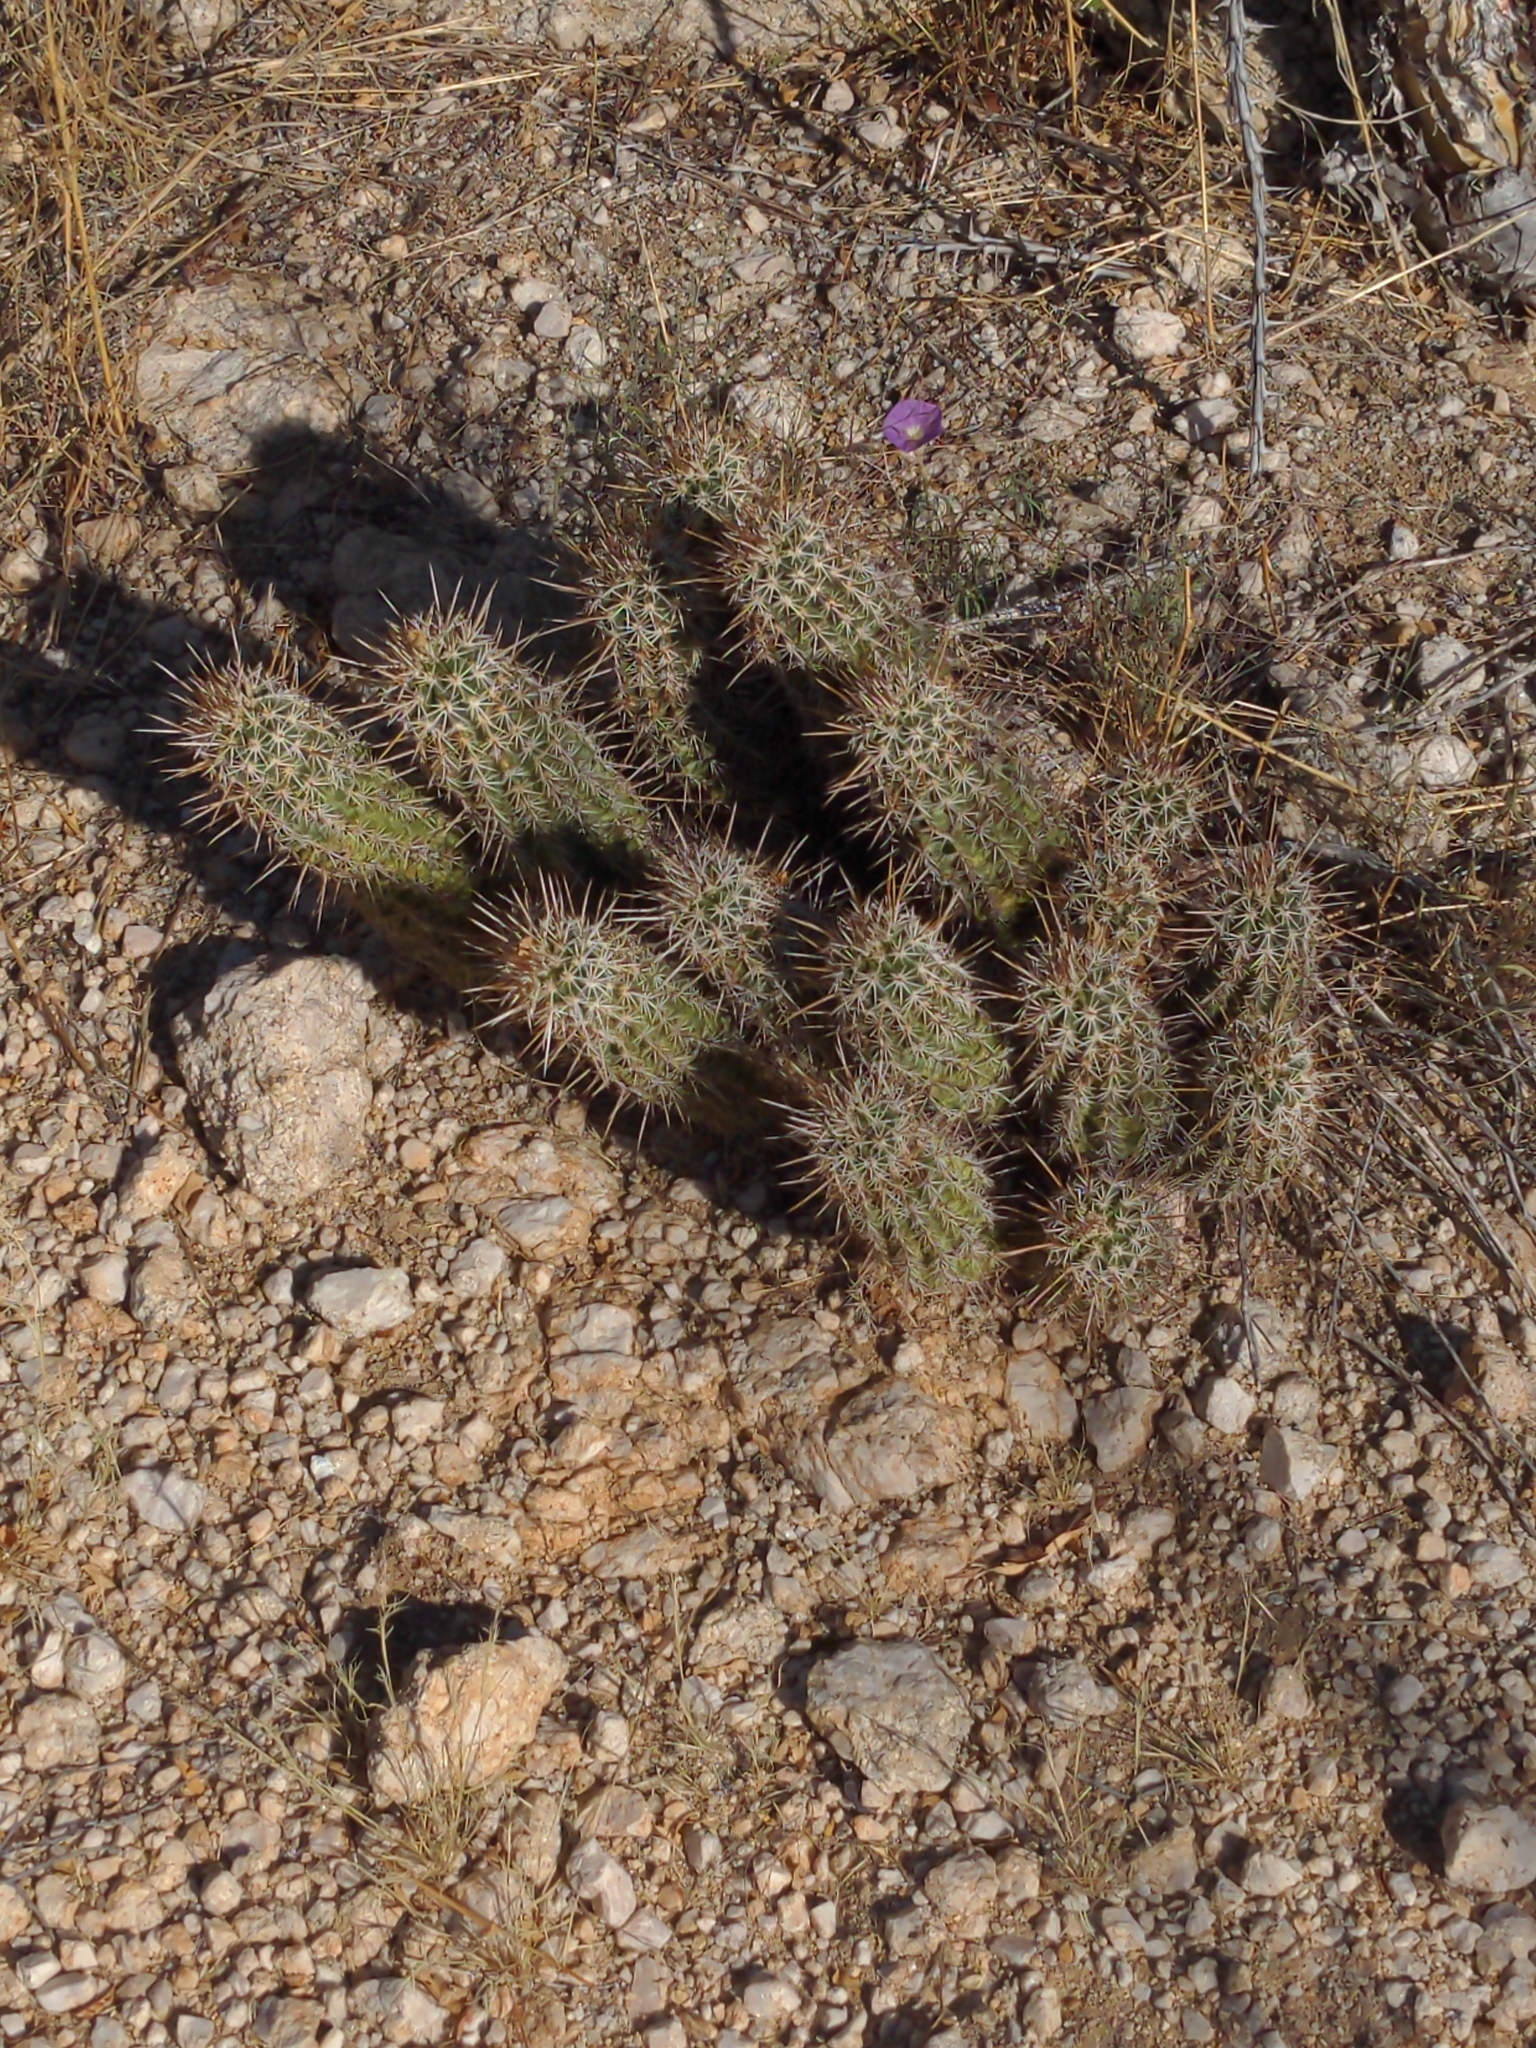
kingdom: Plantae
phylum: Tracheophyta
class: Magnoliopsida
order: Caryophyllales
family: Cactaceae
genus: Echinocereus
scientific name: Echinocereus fasciculatus
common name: Bundle hedgehog
